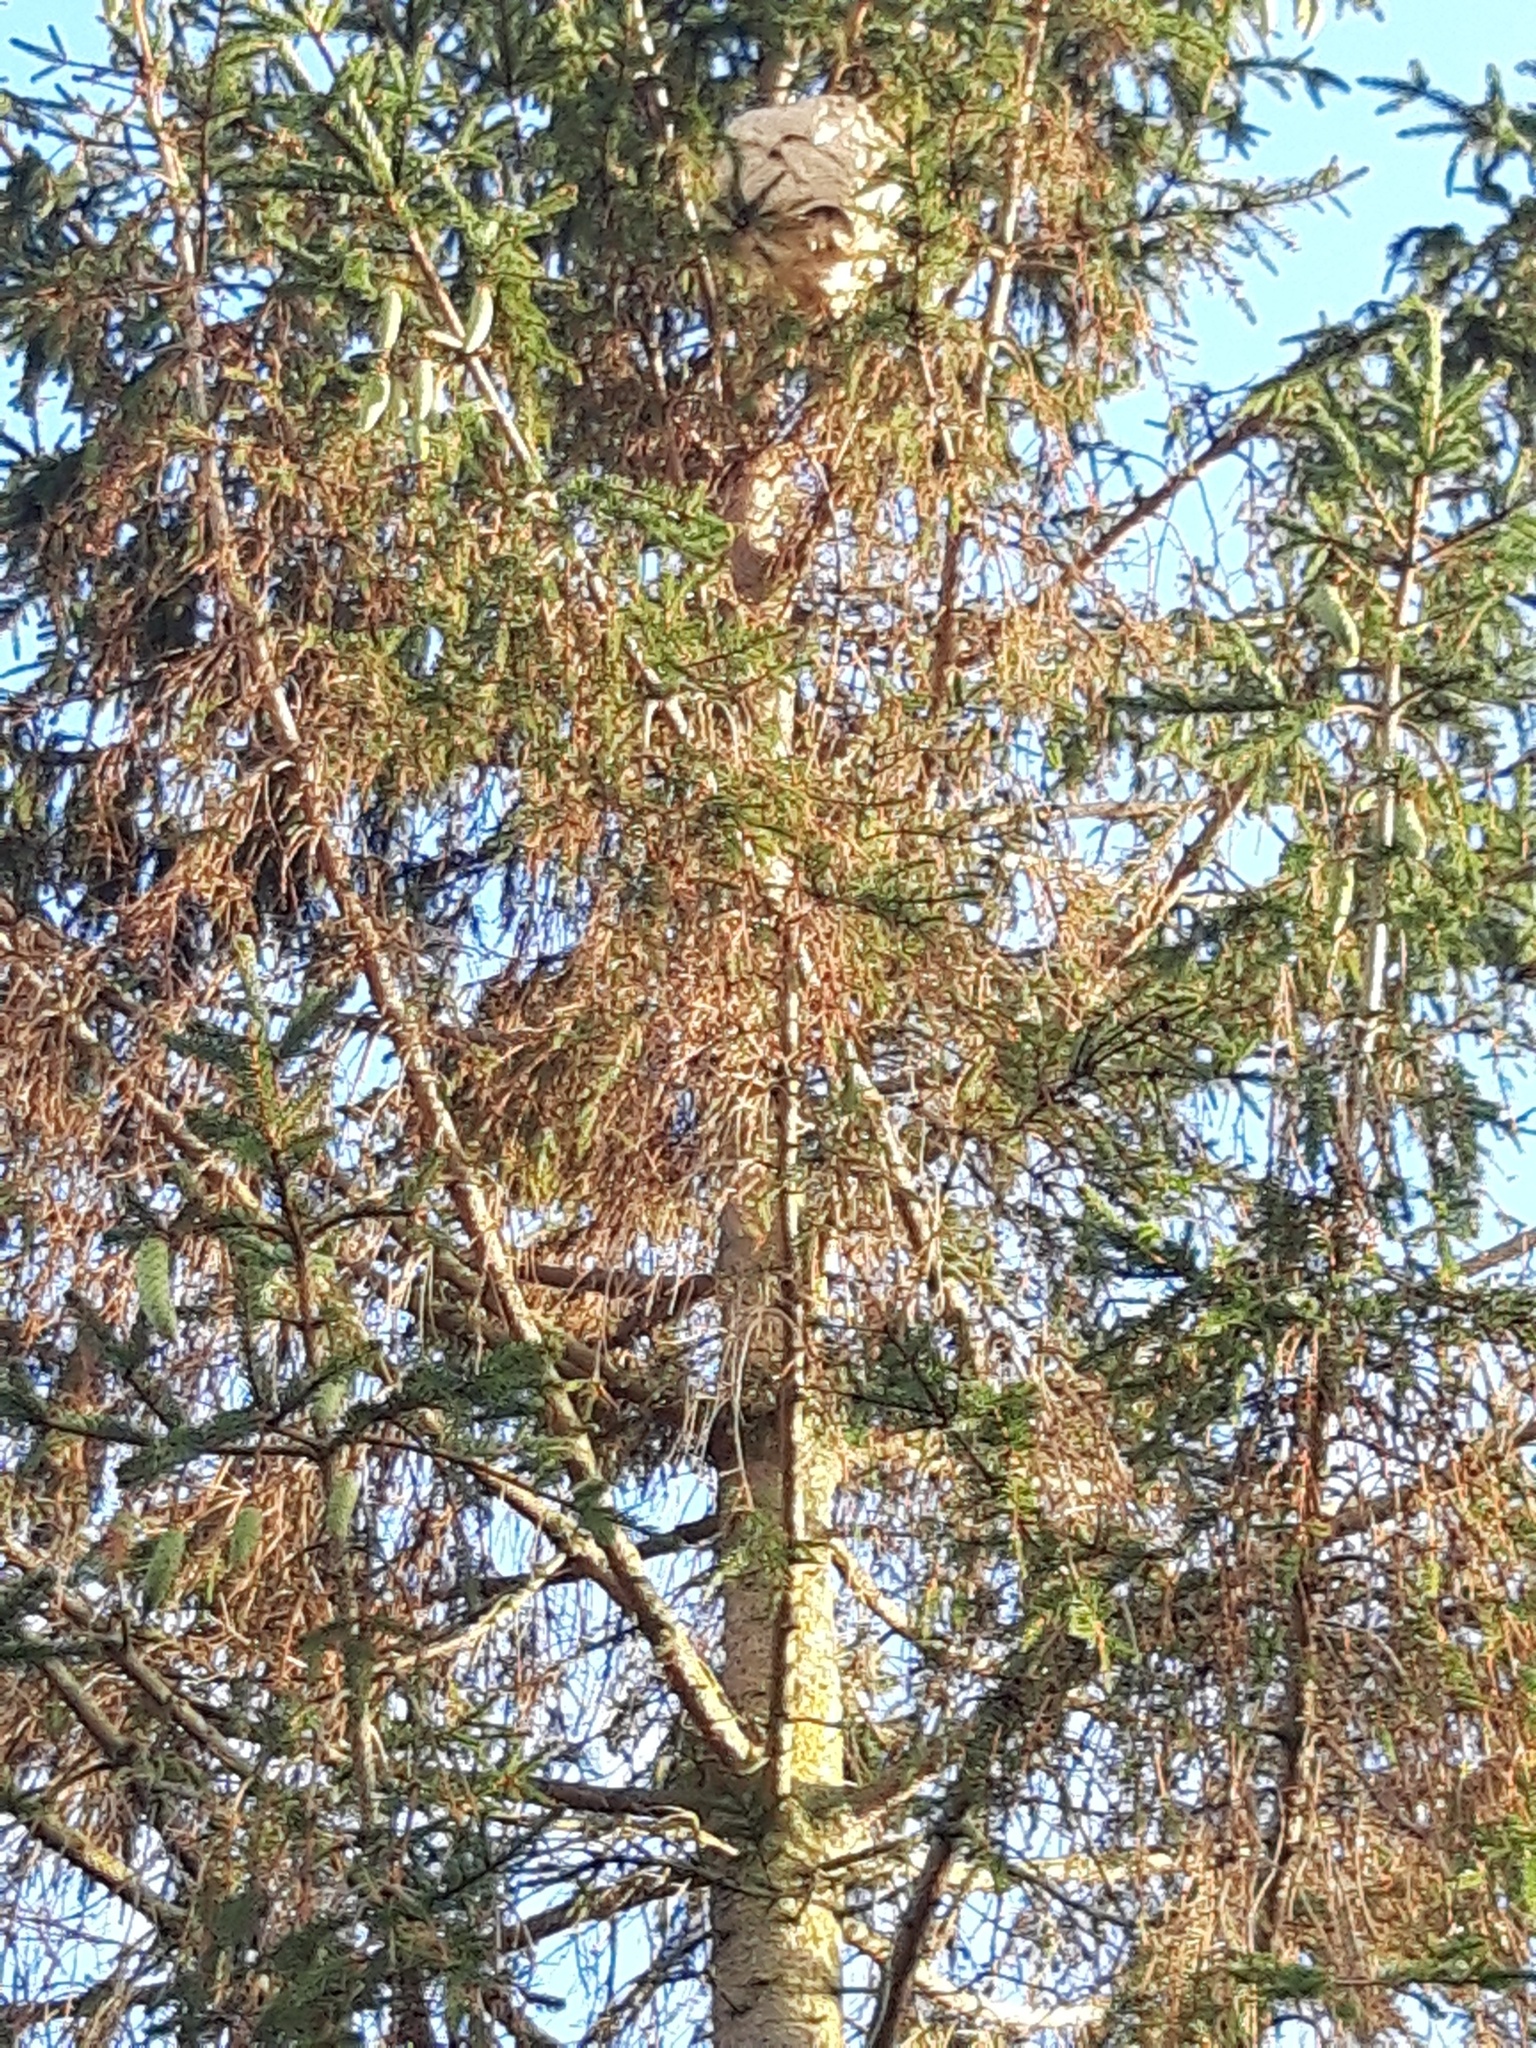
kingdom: Animalia
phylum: Arthropoda
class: Insecta
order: Hymenoptera
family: Vespidae
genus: Vespa
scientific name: Vespa velutina
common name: Asian hornet
